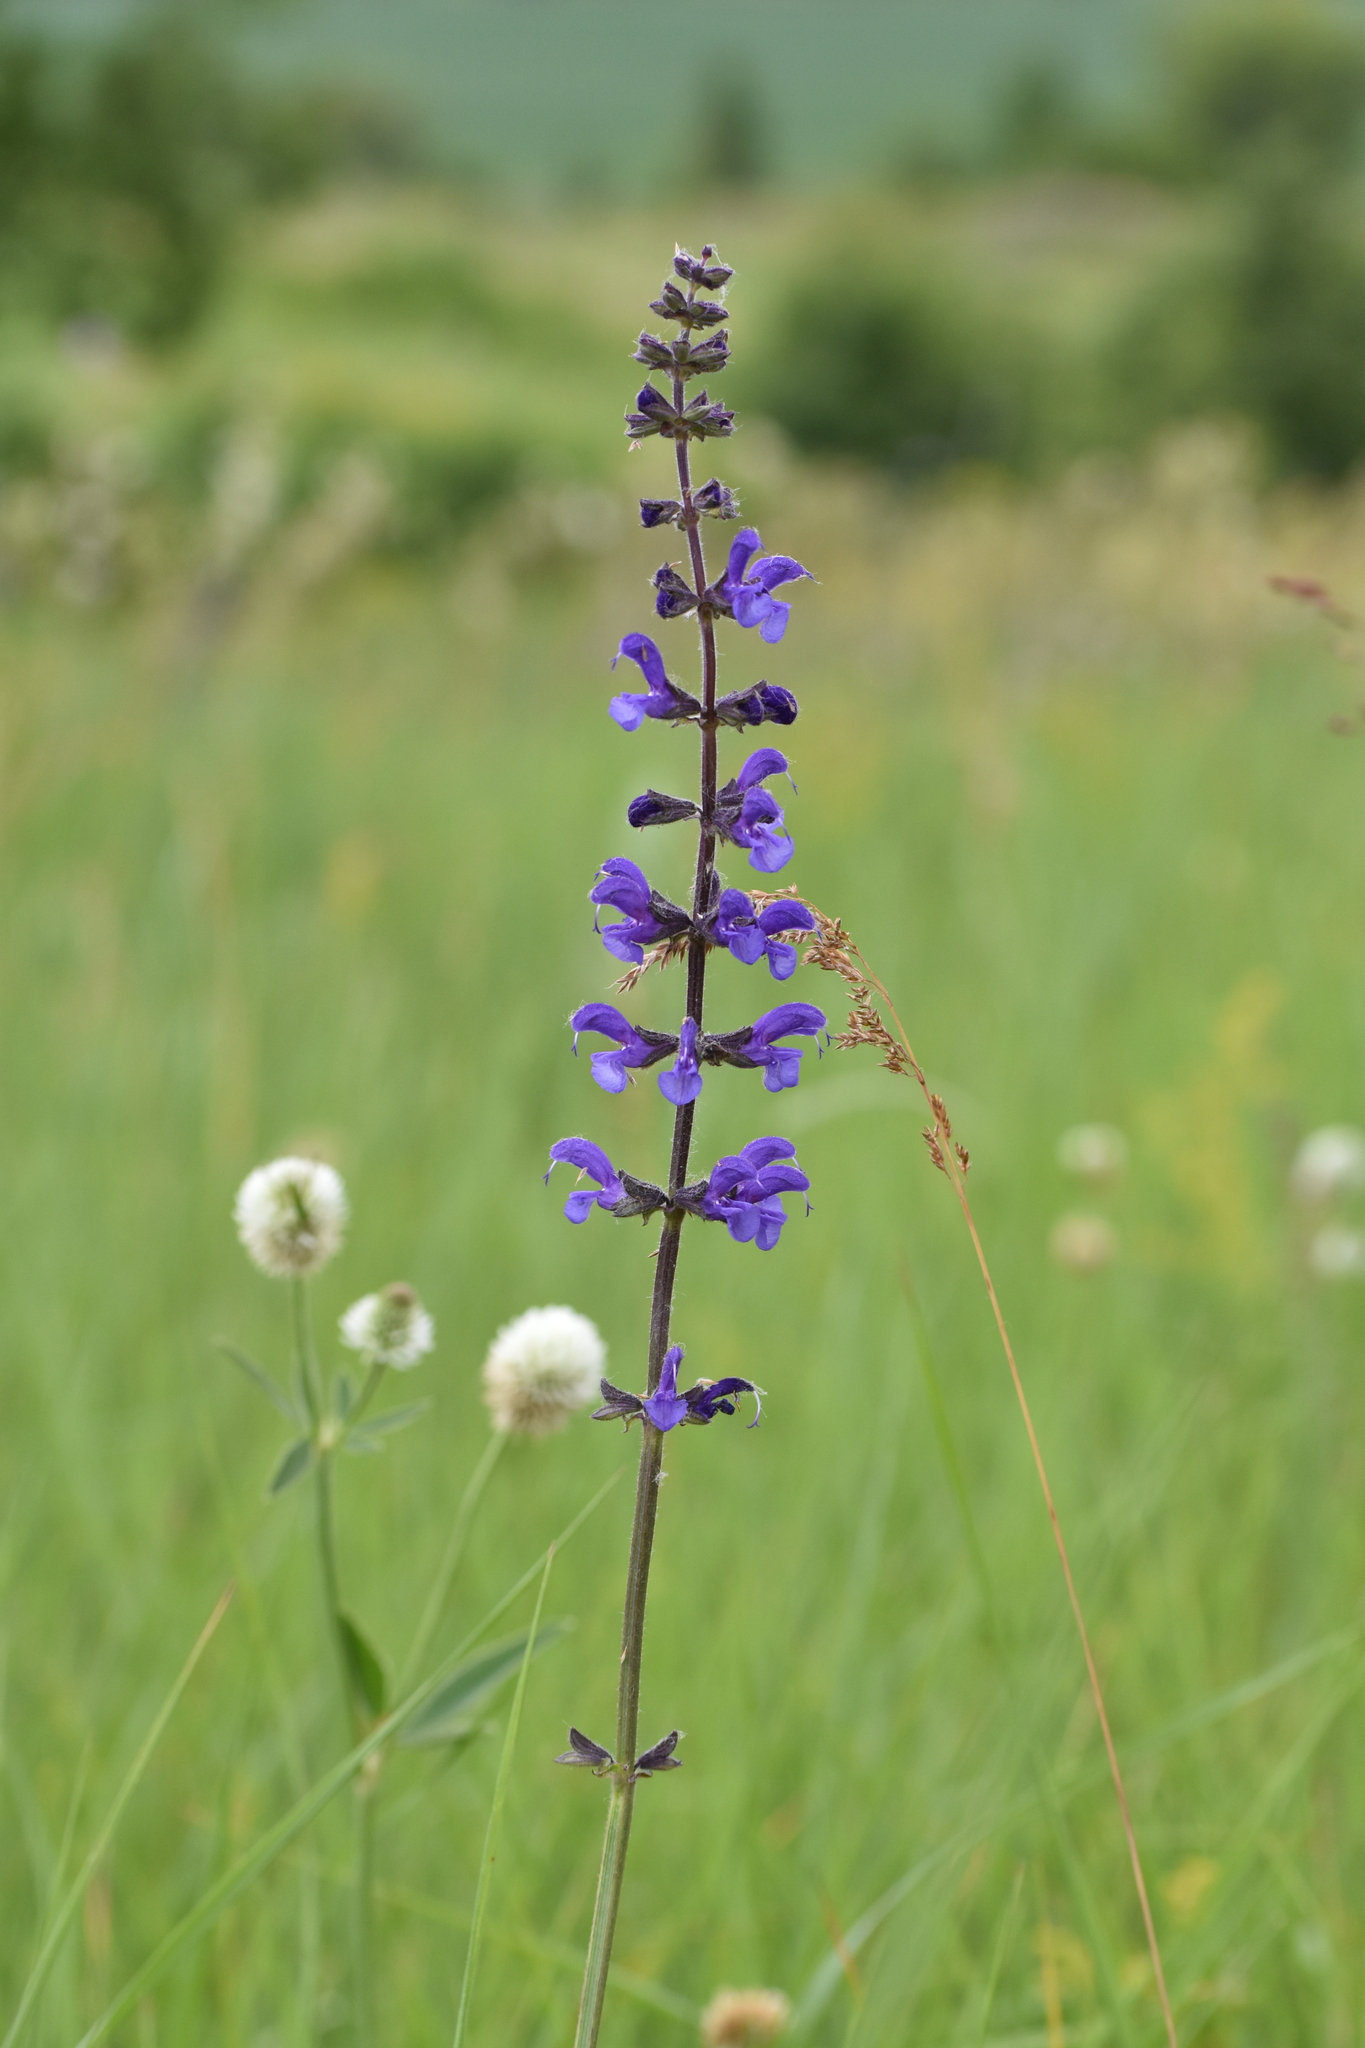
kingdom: Plantae
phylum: Tracheophyta
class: Magnoliopsida
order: Lamiales
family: Lamiaceae
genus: Salvia
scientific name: Salvia pratensis
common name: Meadow sage
